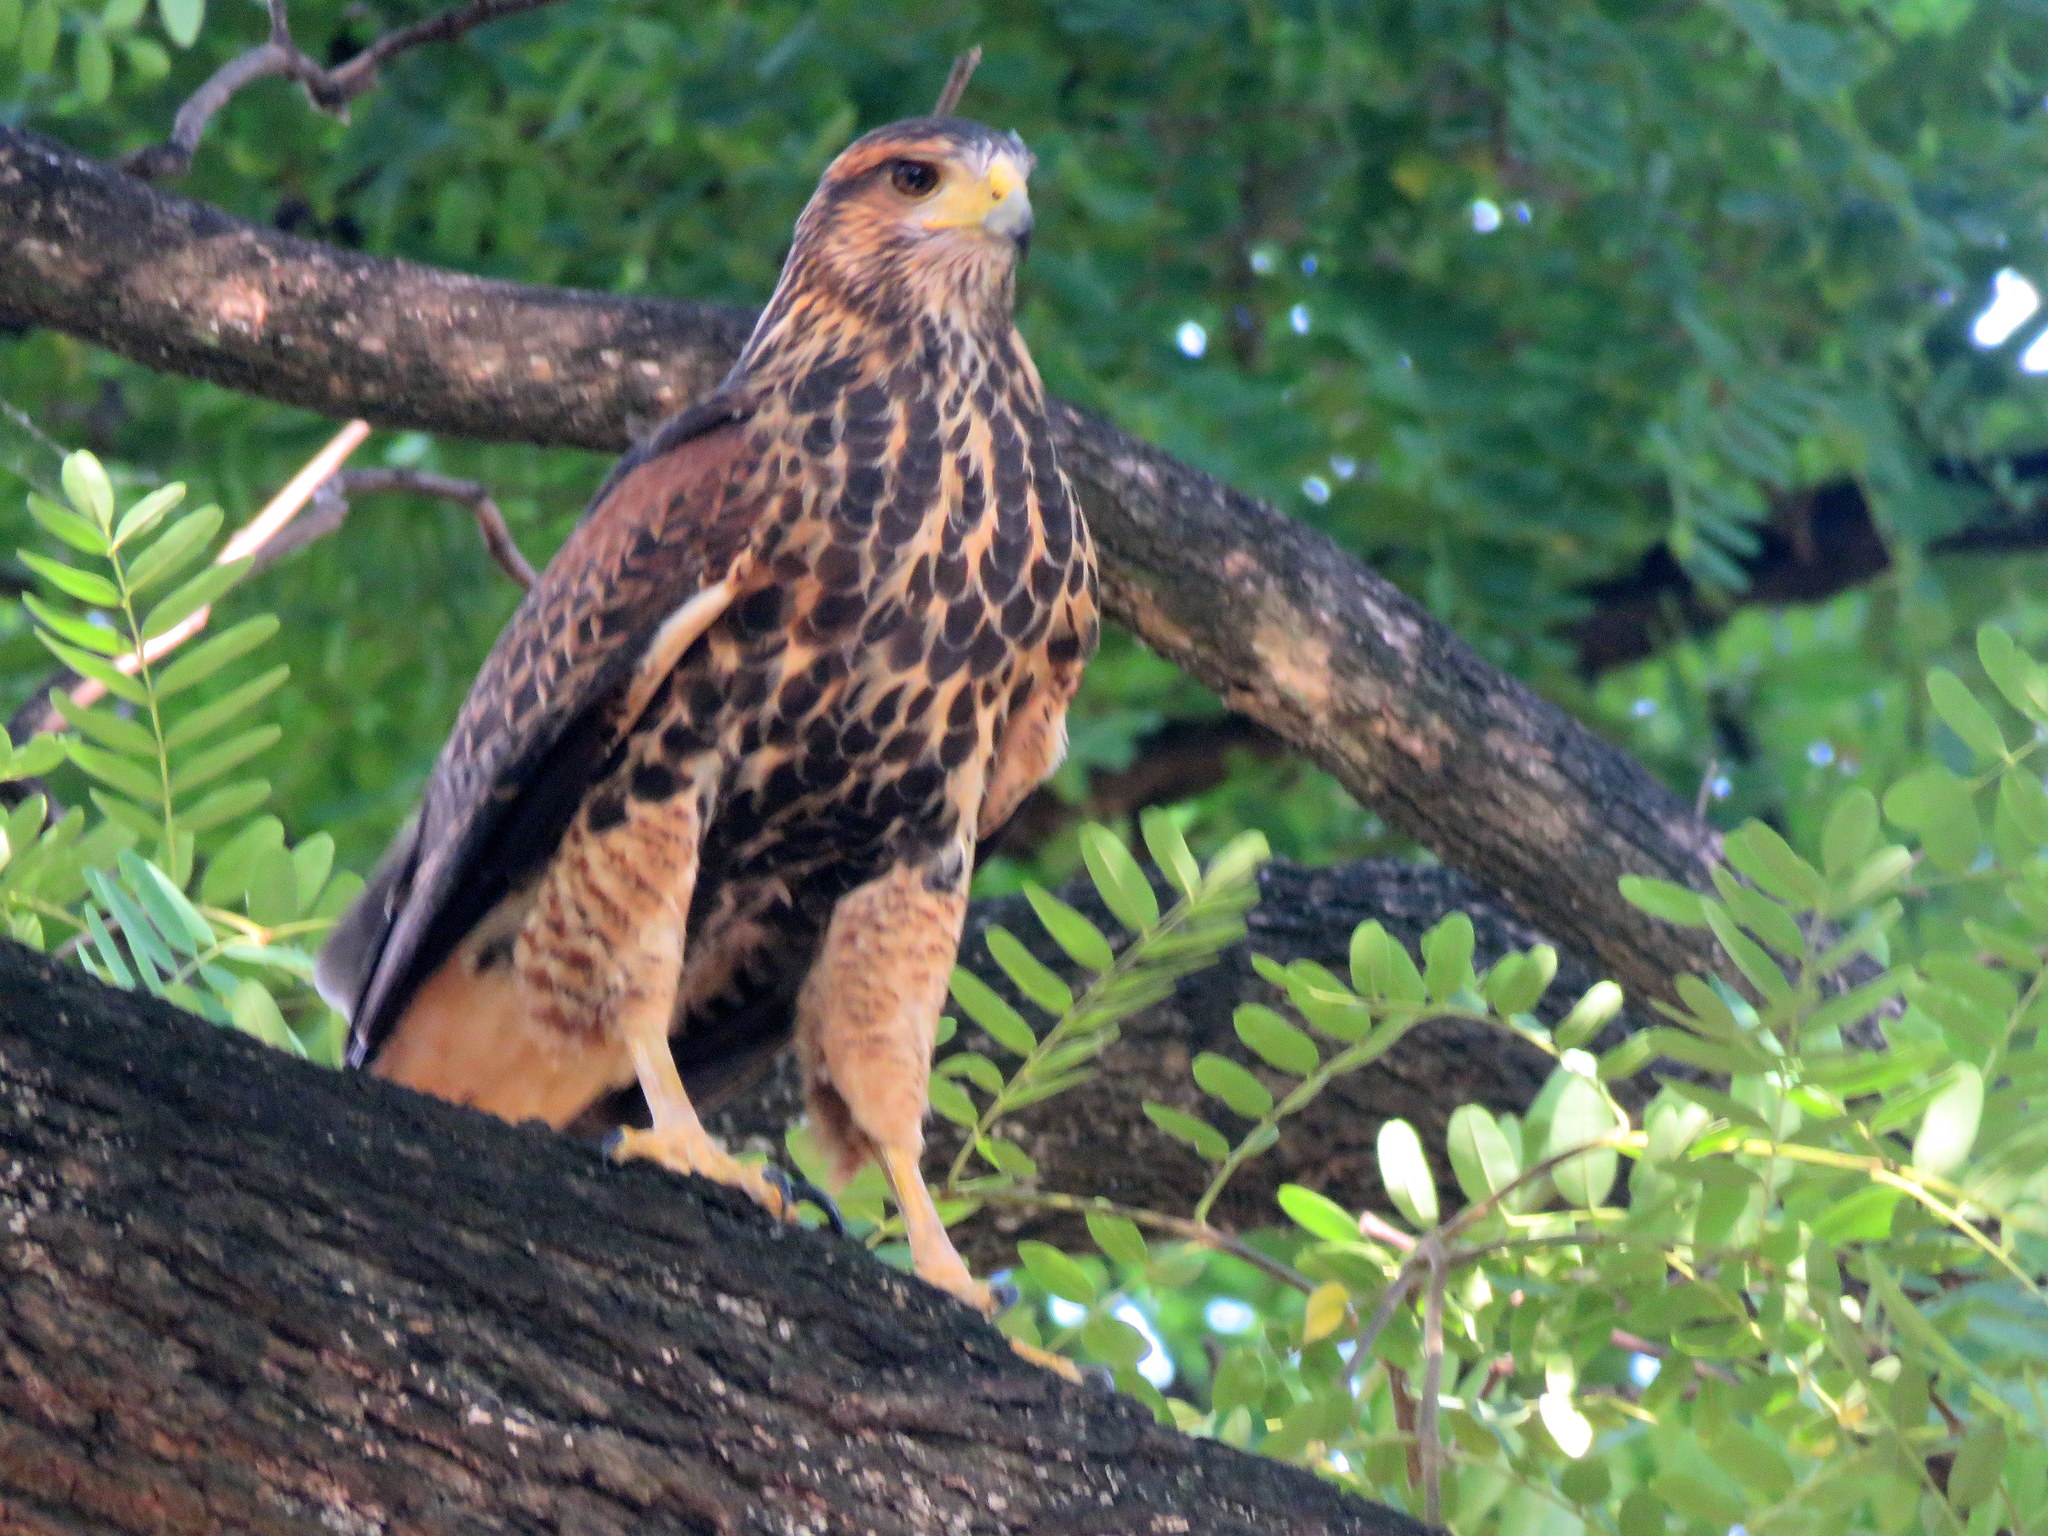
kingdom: Animalia
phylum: Chordata
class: Aves
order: Accipitriformes
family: Accipitridae
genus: Parabuteo
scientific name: Parabuteo unicinctus
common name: Harris's hawk
